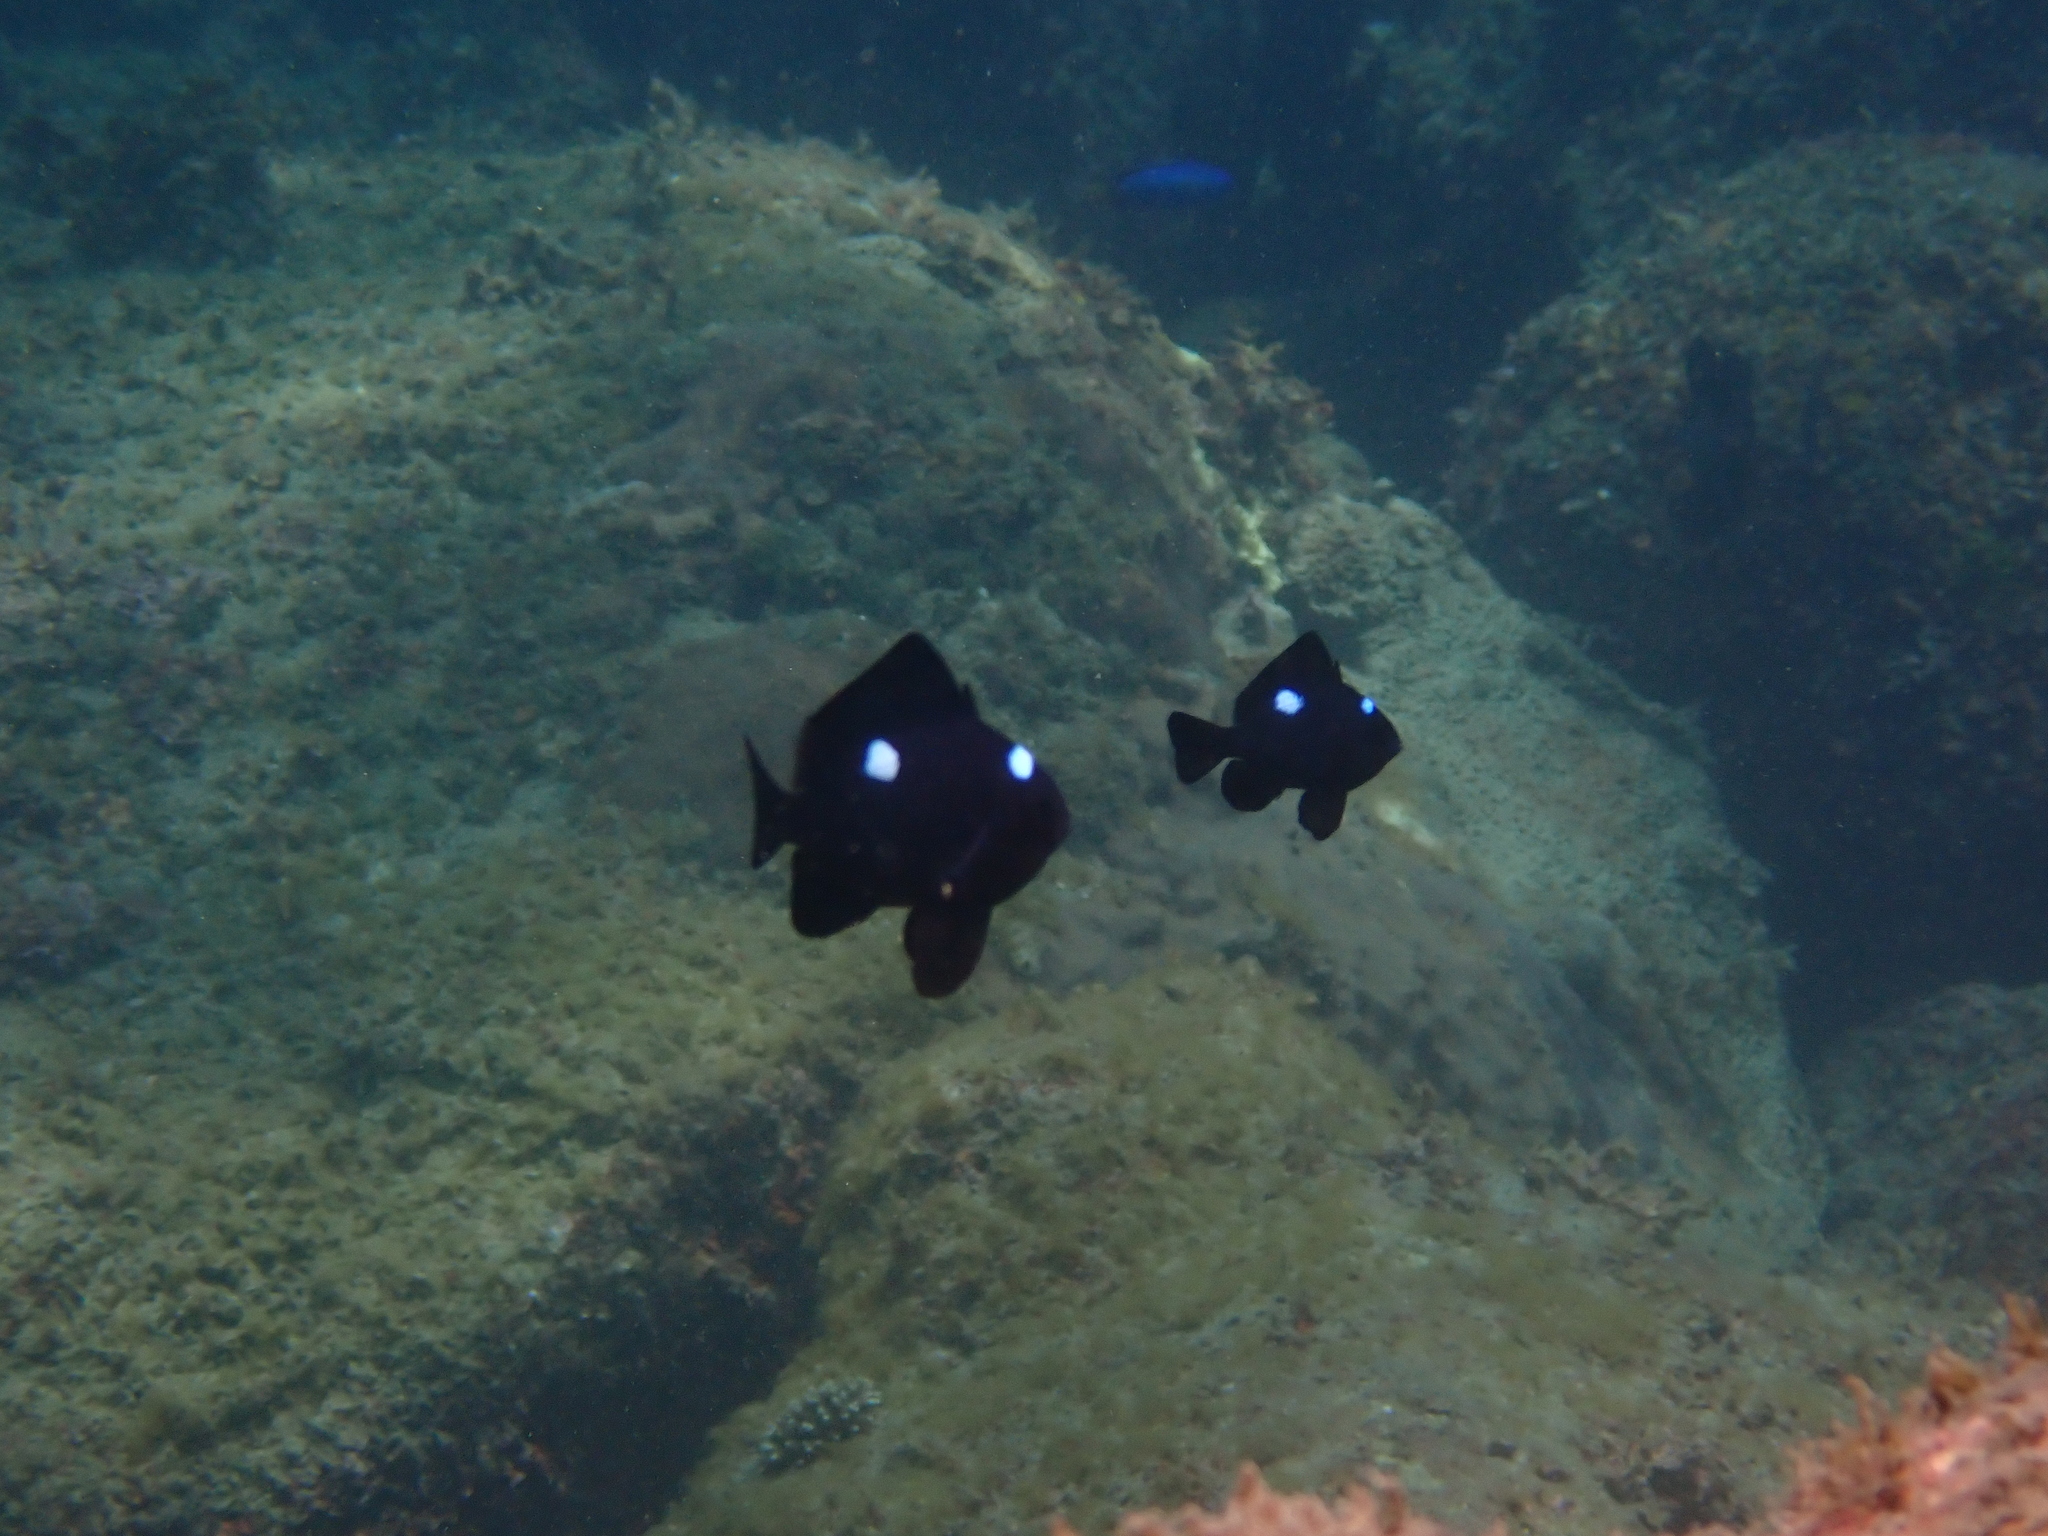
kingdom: Animalia
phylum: Chordata
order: Perciformes
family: Pomacentridae
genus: Dascyllus
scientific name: Dascyllus trimaculatus
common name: Threespot dascyllus
